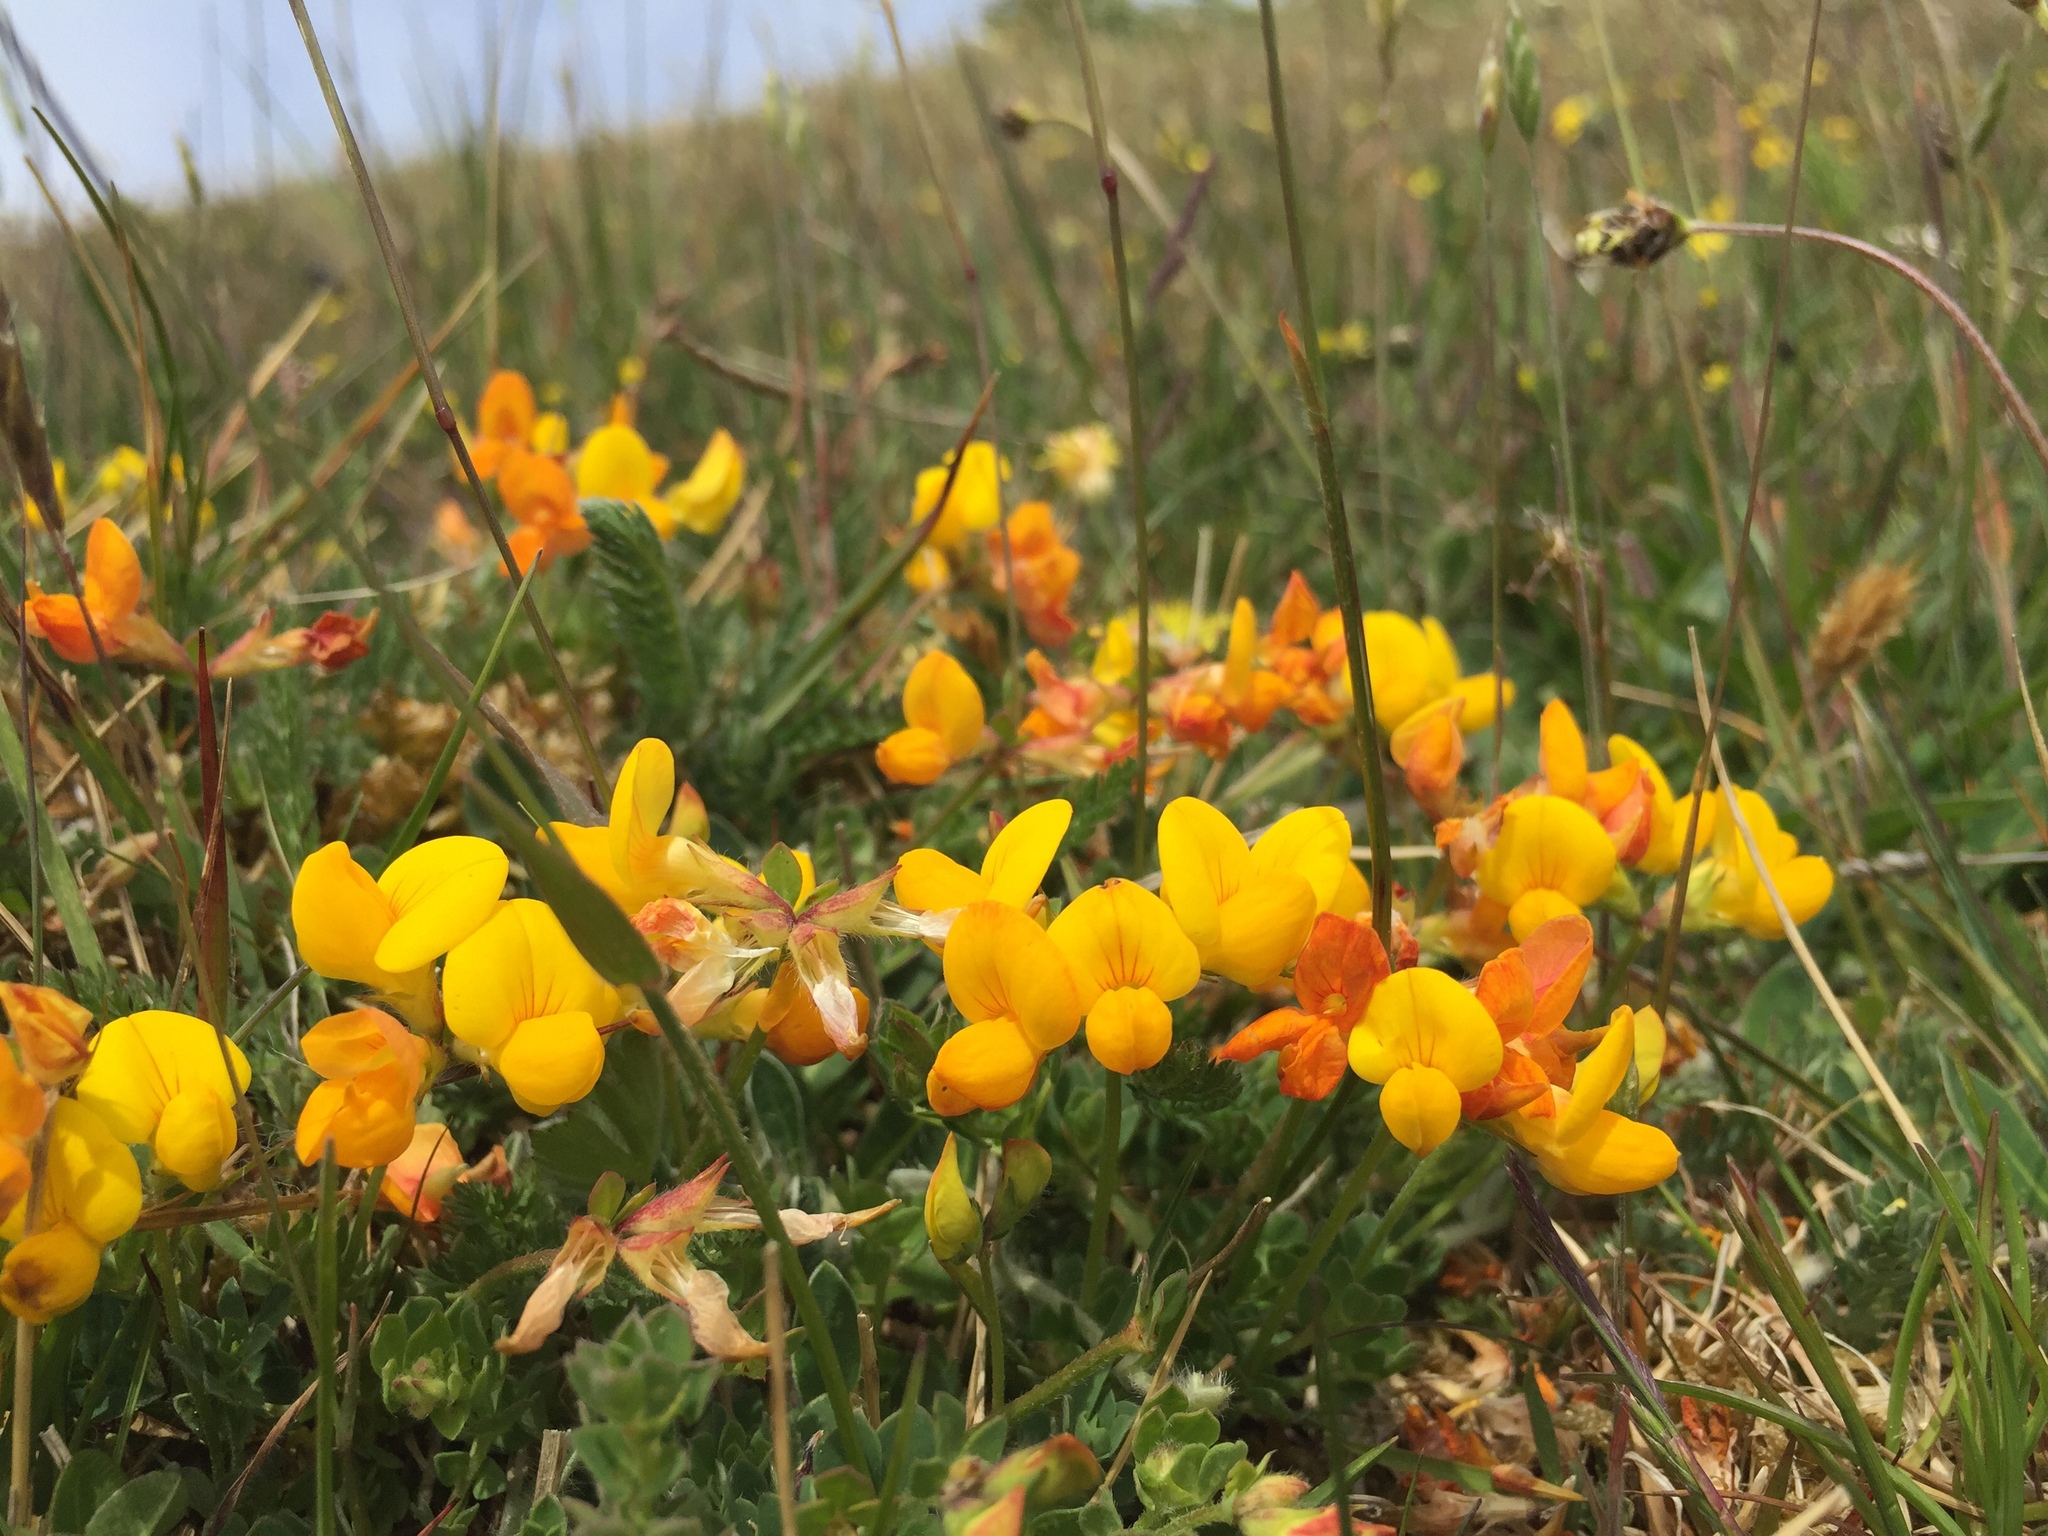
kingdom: Plantae
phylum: Tracheophyta
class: Magnoliopsida
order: Fabales
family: Fabaceae
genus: Lotus
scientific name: Lotus corniculatus
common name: Common bird's-foot-trefoil
